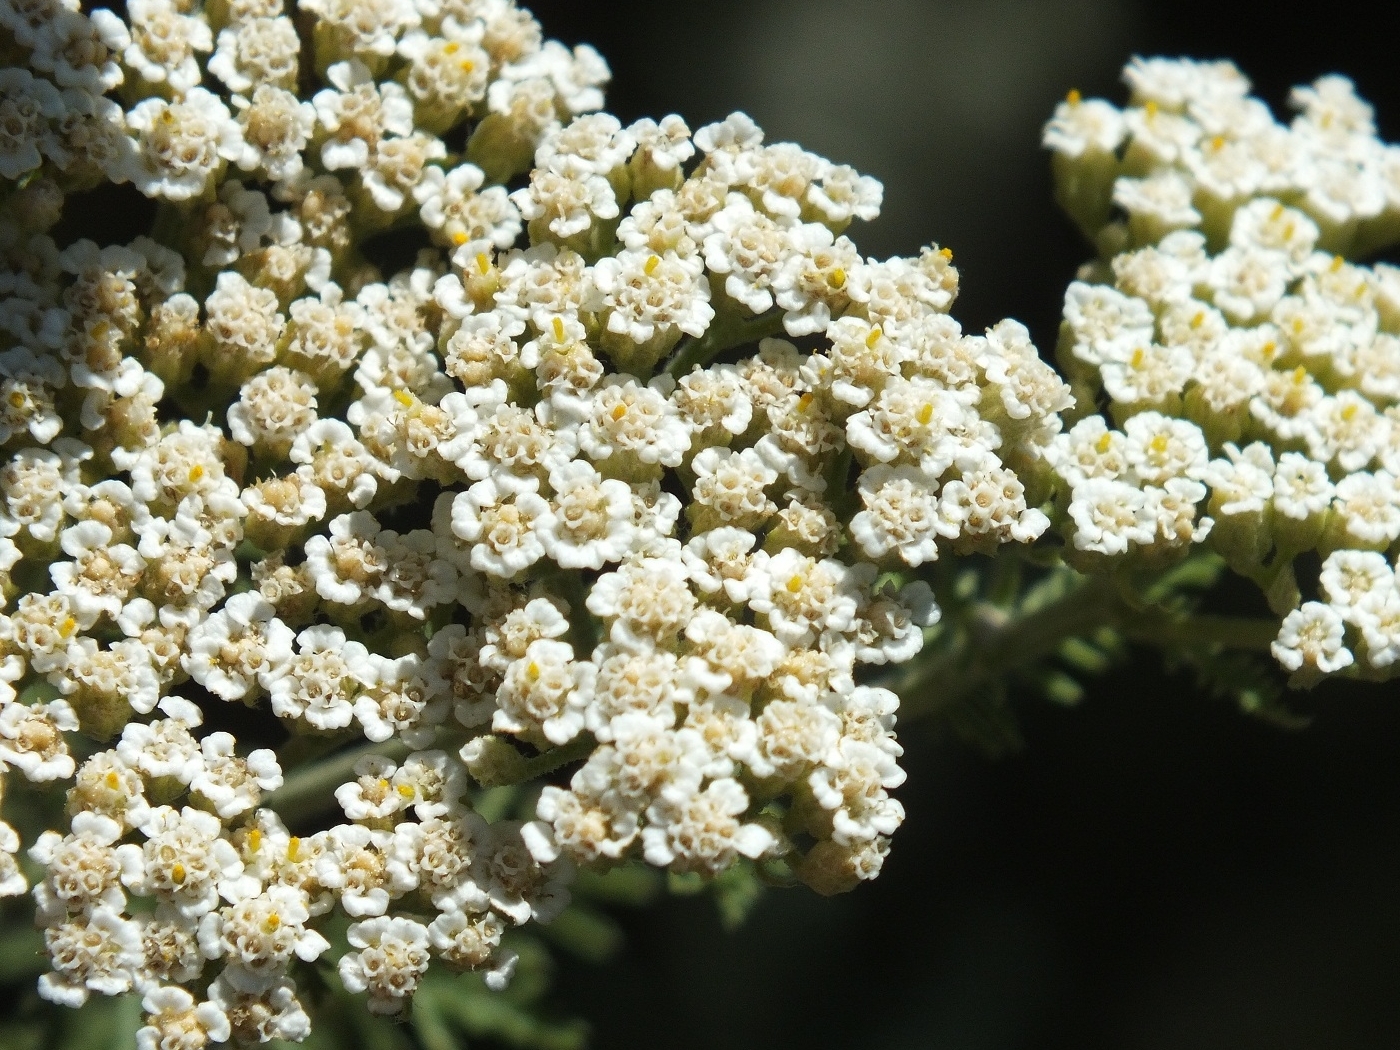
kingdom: Plantae
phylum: Tracheophyta
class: Magnoliopsida
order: Asterales
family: Asteraceae
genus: Achillea
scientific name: Achillea nobilis
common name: Noble yarrow
